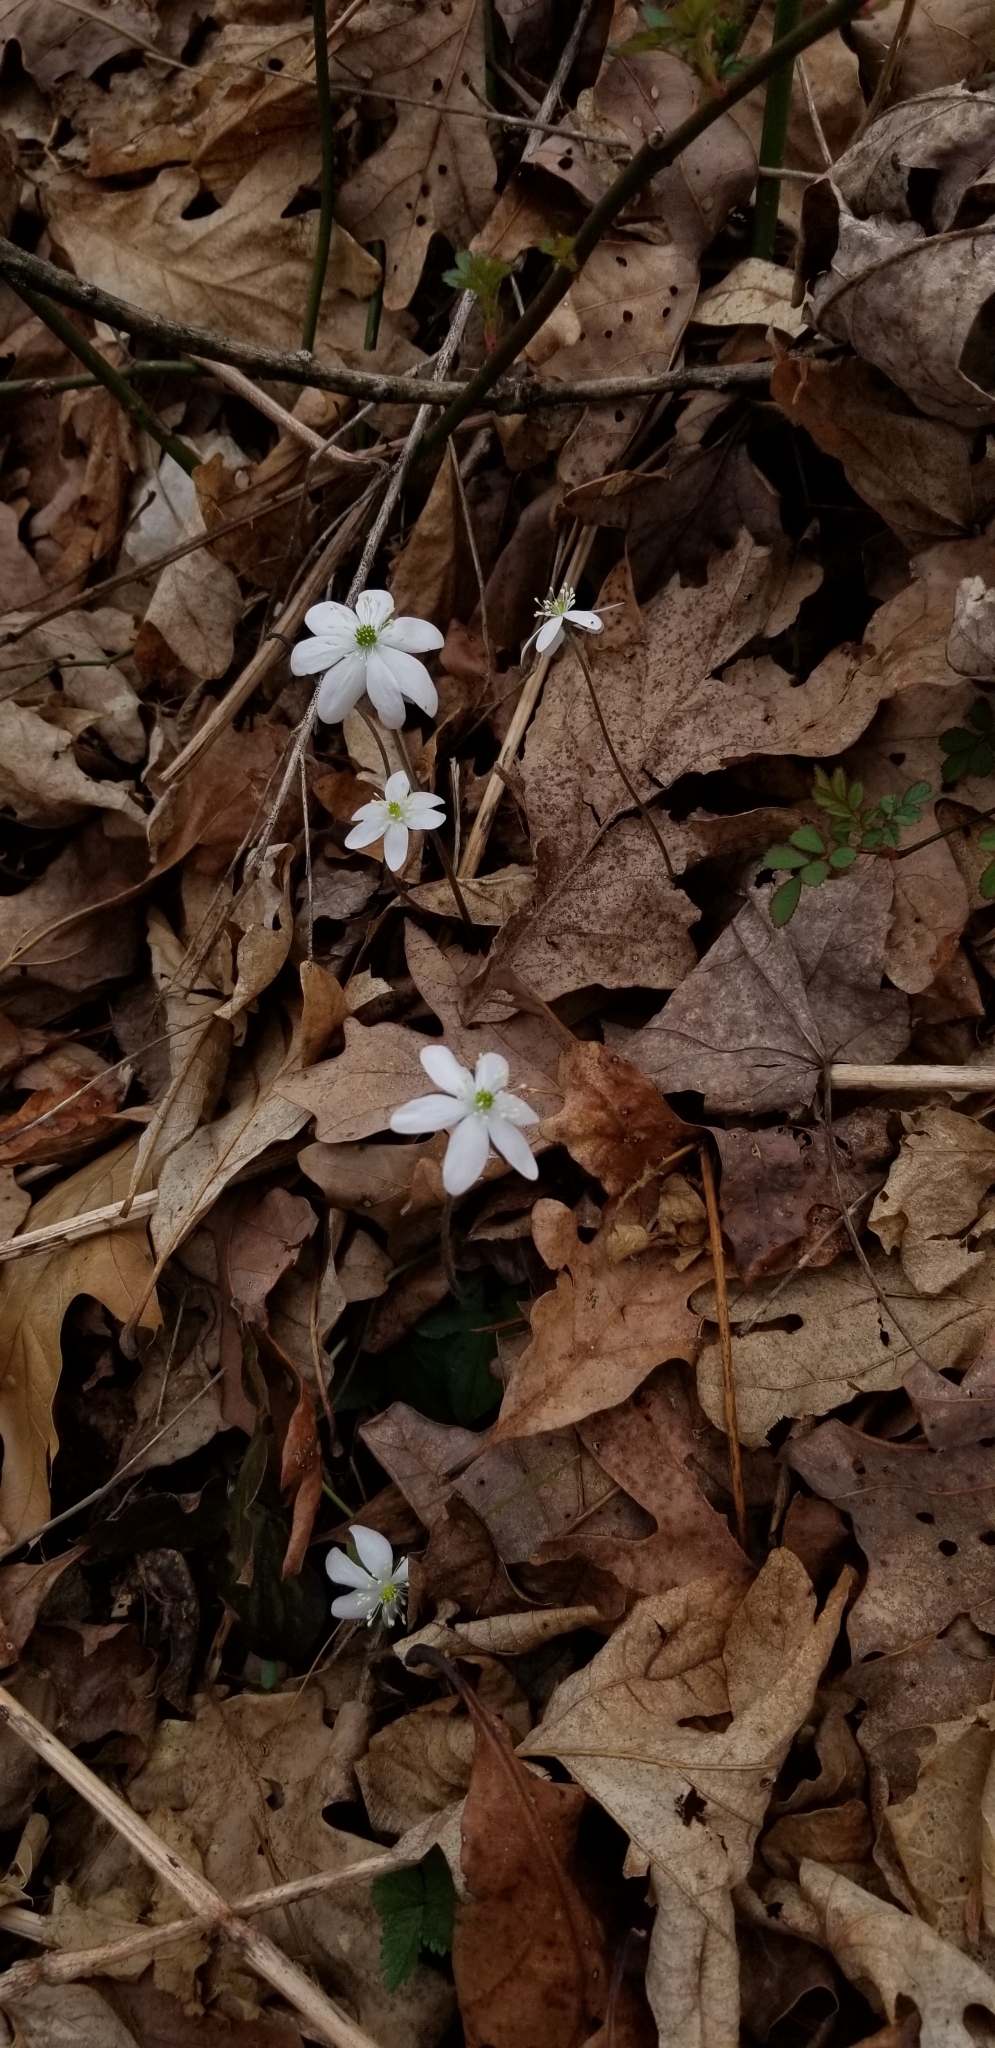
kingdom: Plantae
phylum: Tracheophyta
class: Magnoliopsida
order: Ranunculales
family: Ranunculaceae
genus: Hepatica
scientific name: Hepatica acutiloba
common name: Sharp-lobed hepatica
